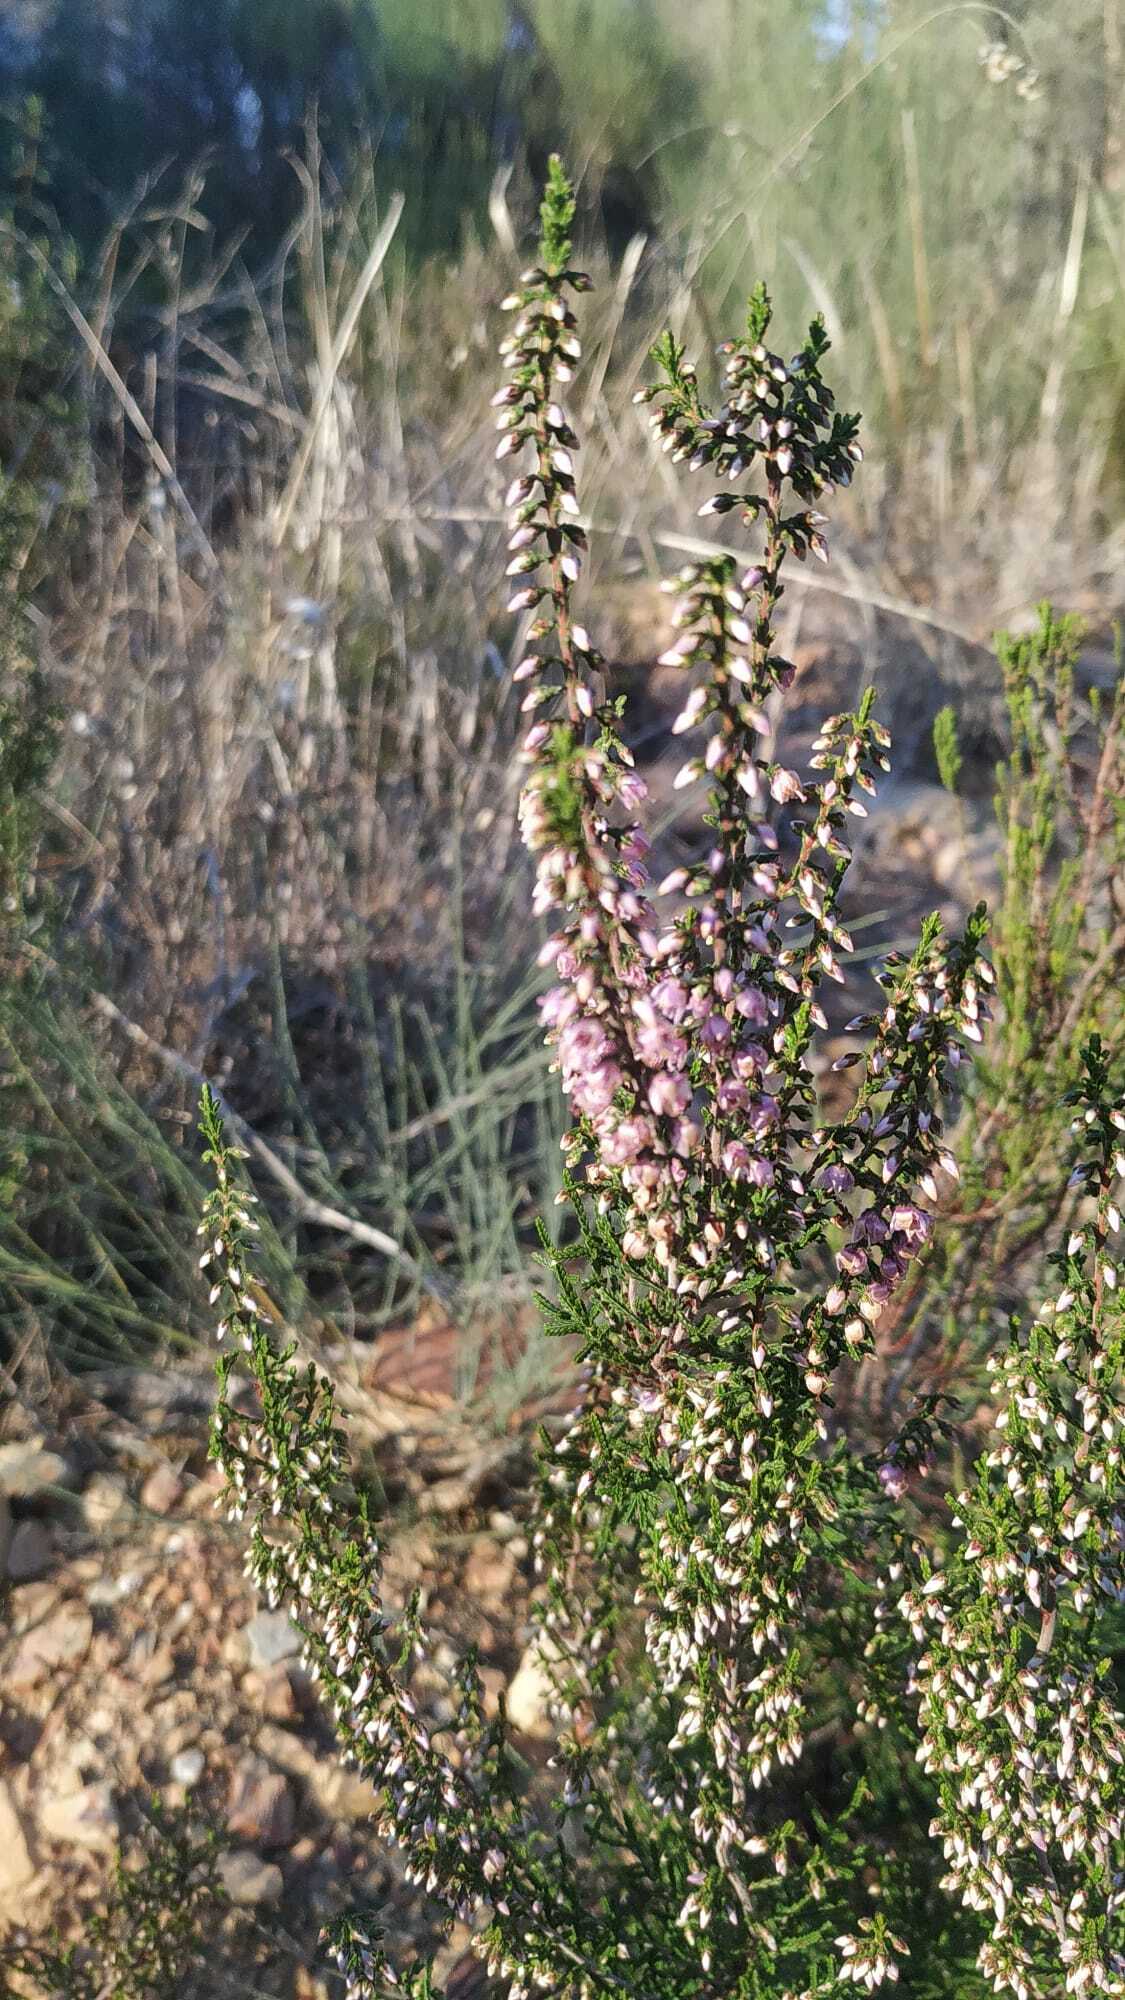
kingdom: Plantae
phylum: Tracheophyta
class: Magnoliopsida
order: Ericales
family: Ericaceae
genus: Calluna
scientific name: Calluna vulgaris
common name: Heather
